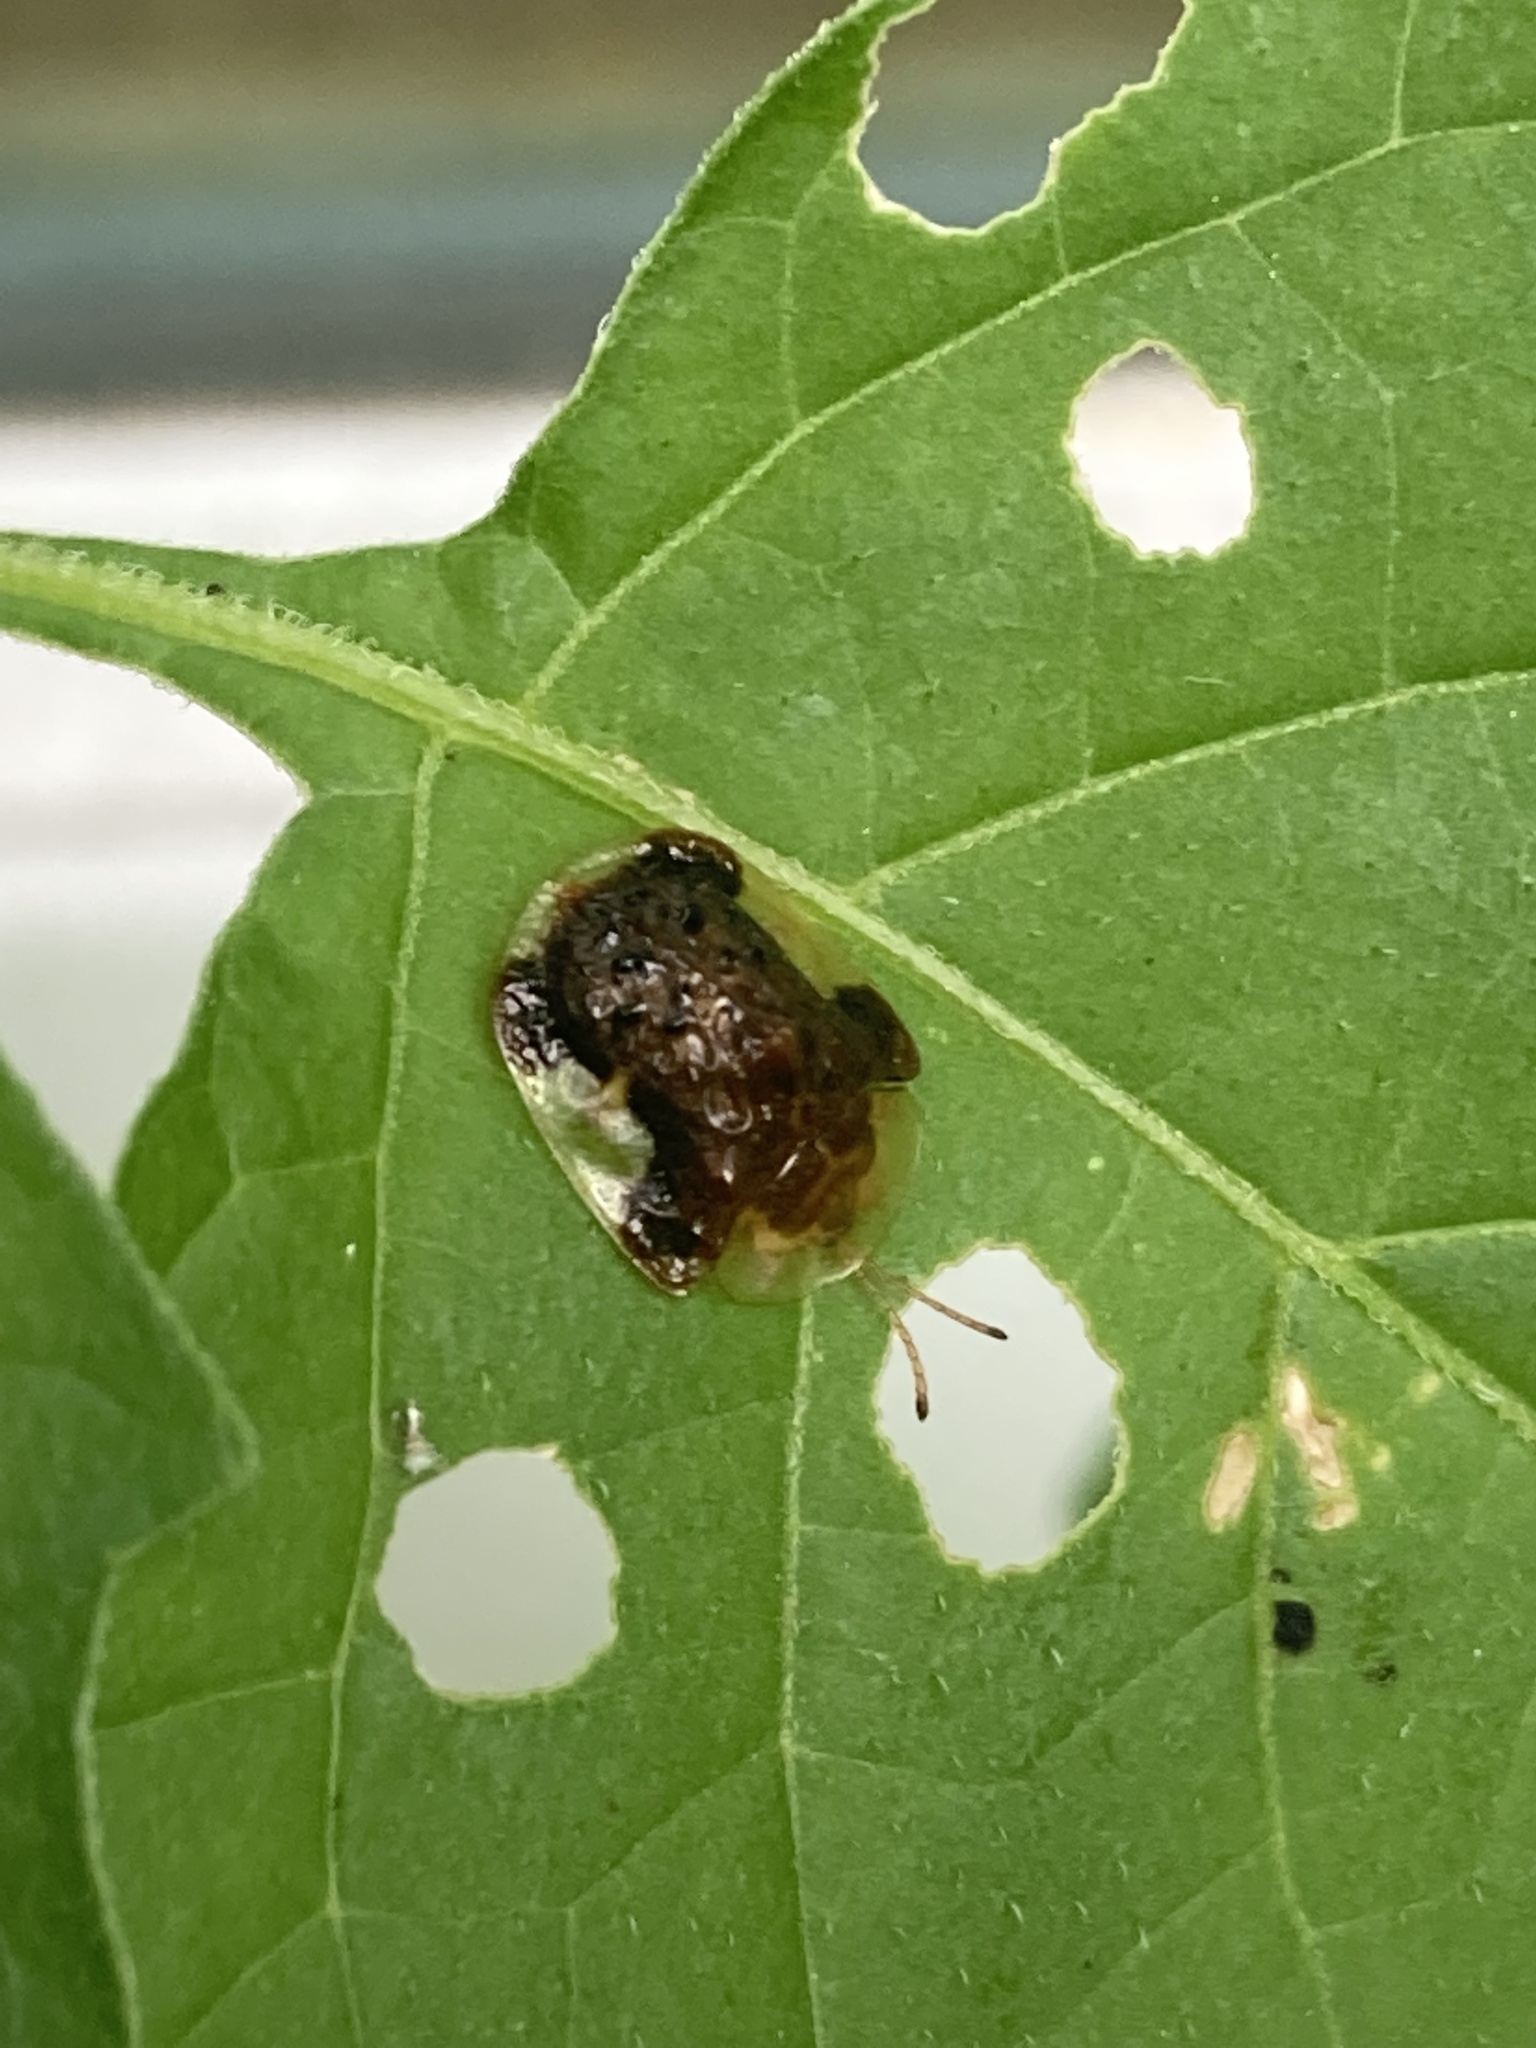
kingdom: Animalia
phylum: Arthropoda
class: Insecta
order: Coleoptera
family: Chrysomelidae
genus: Helocassis
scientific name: Helocassis clavata
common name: Clavate tortoise beetle
